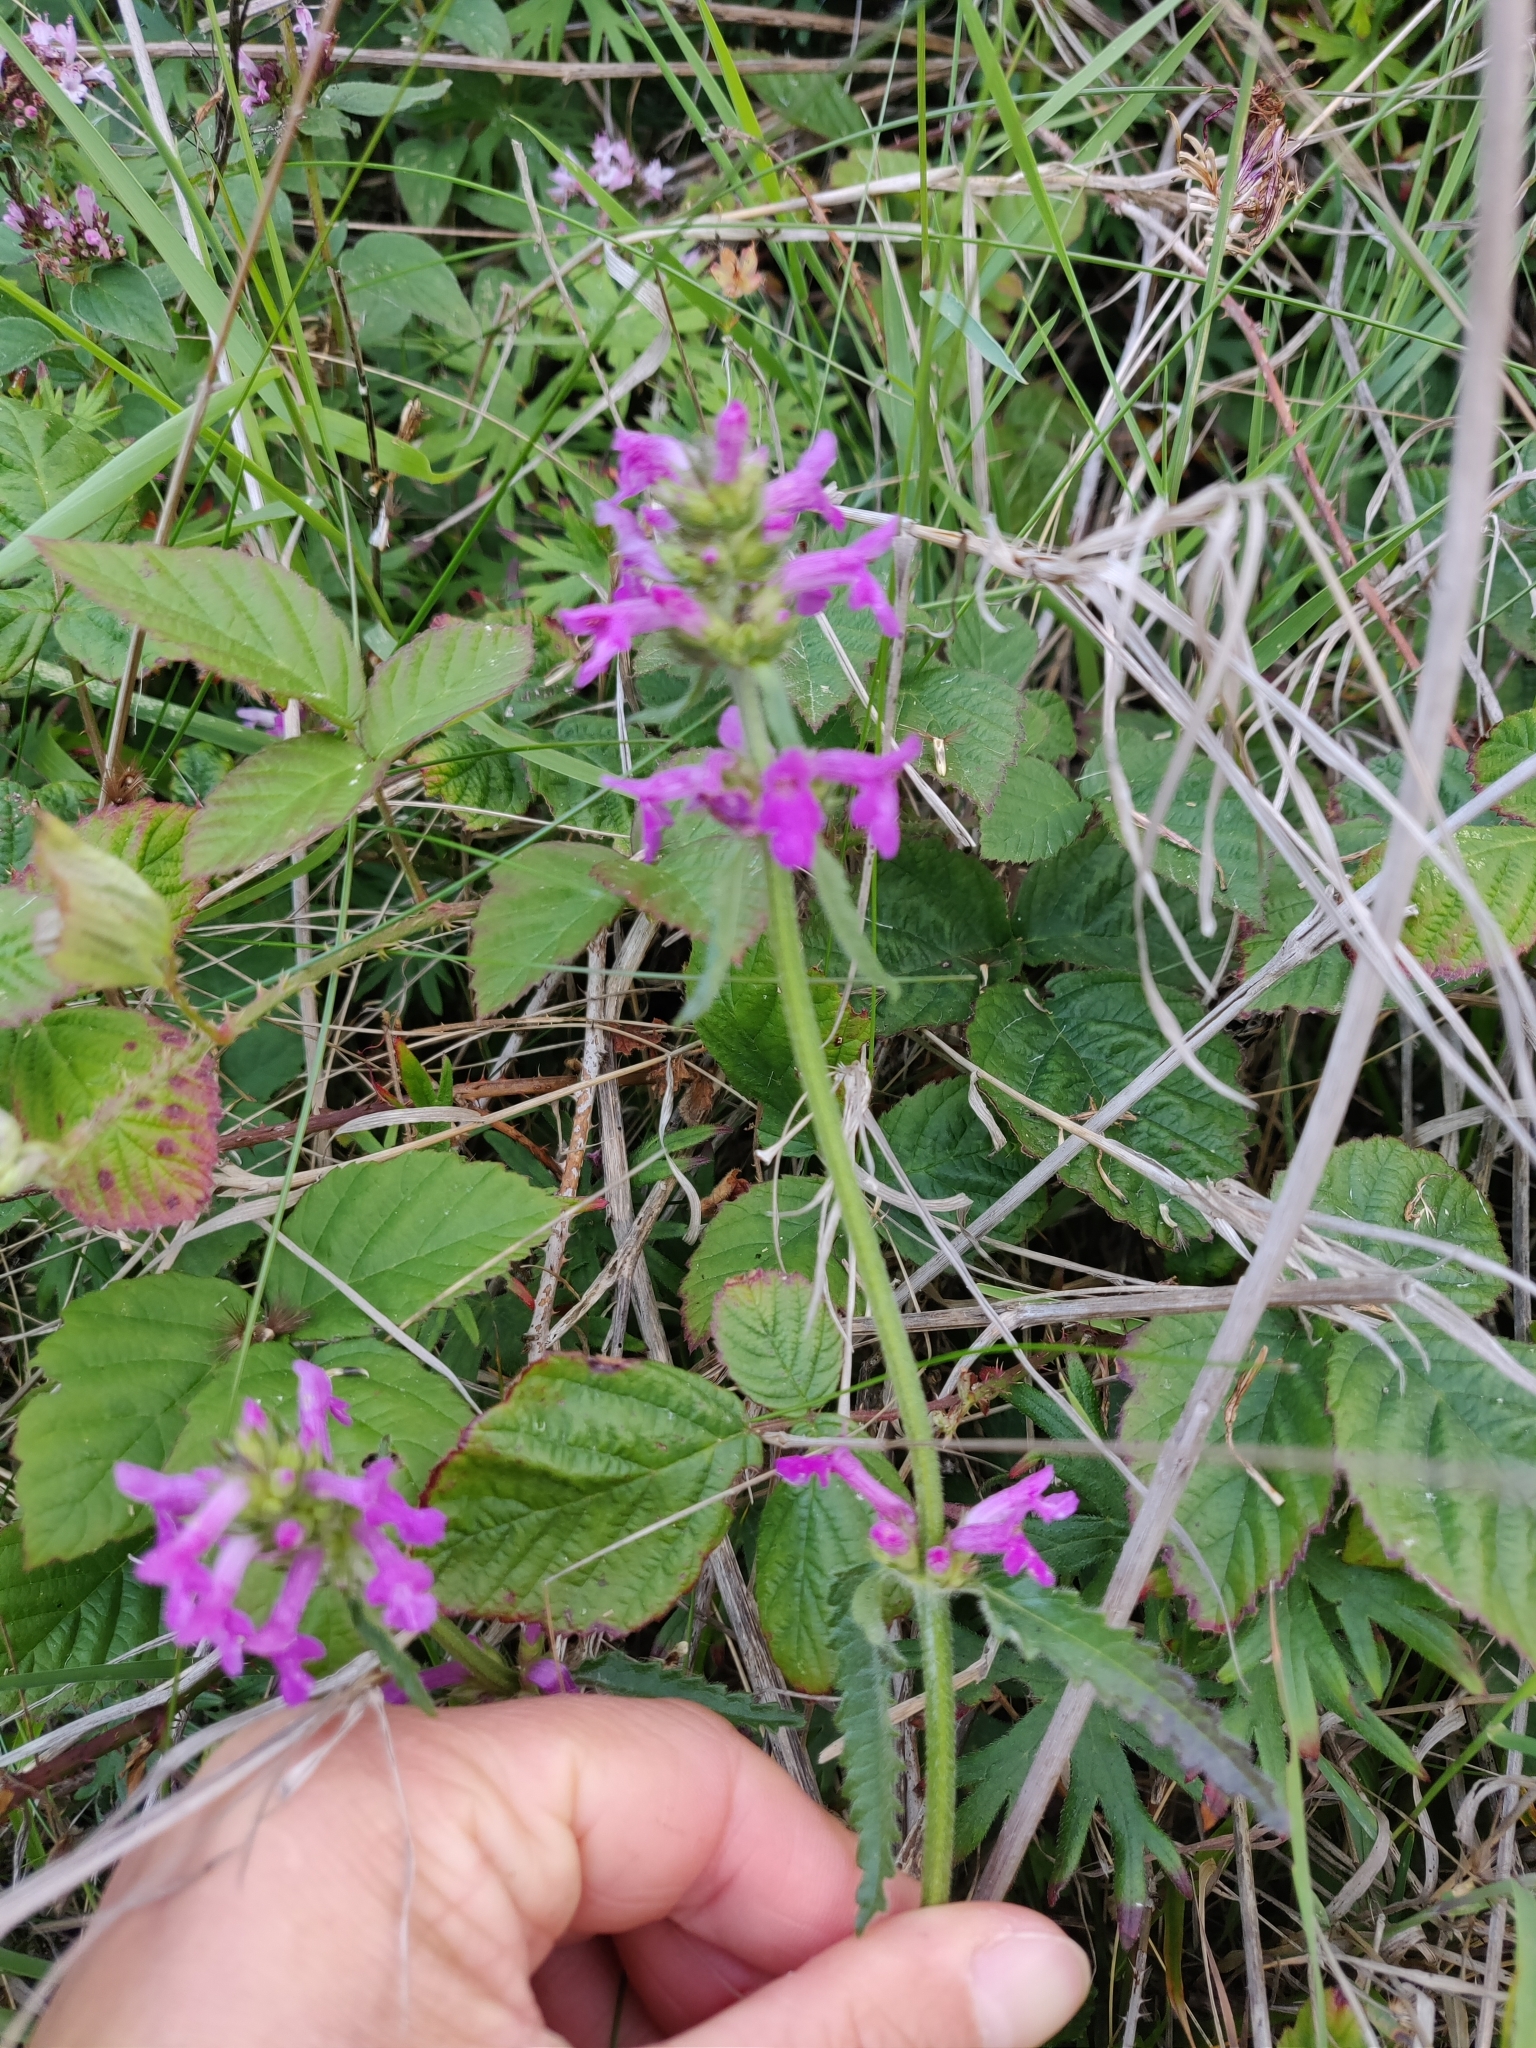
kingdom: Plantae
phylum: Tracheophyta
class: Magnoliopsida
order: Lamiales
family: Lamiaceae
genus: Betonica
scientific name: Betonica officinalis
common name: Bishop's-wort
